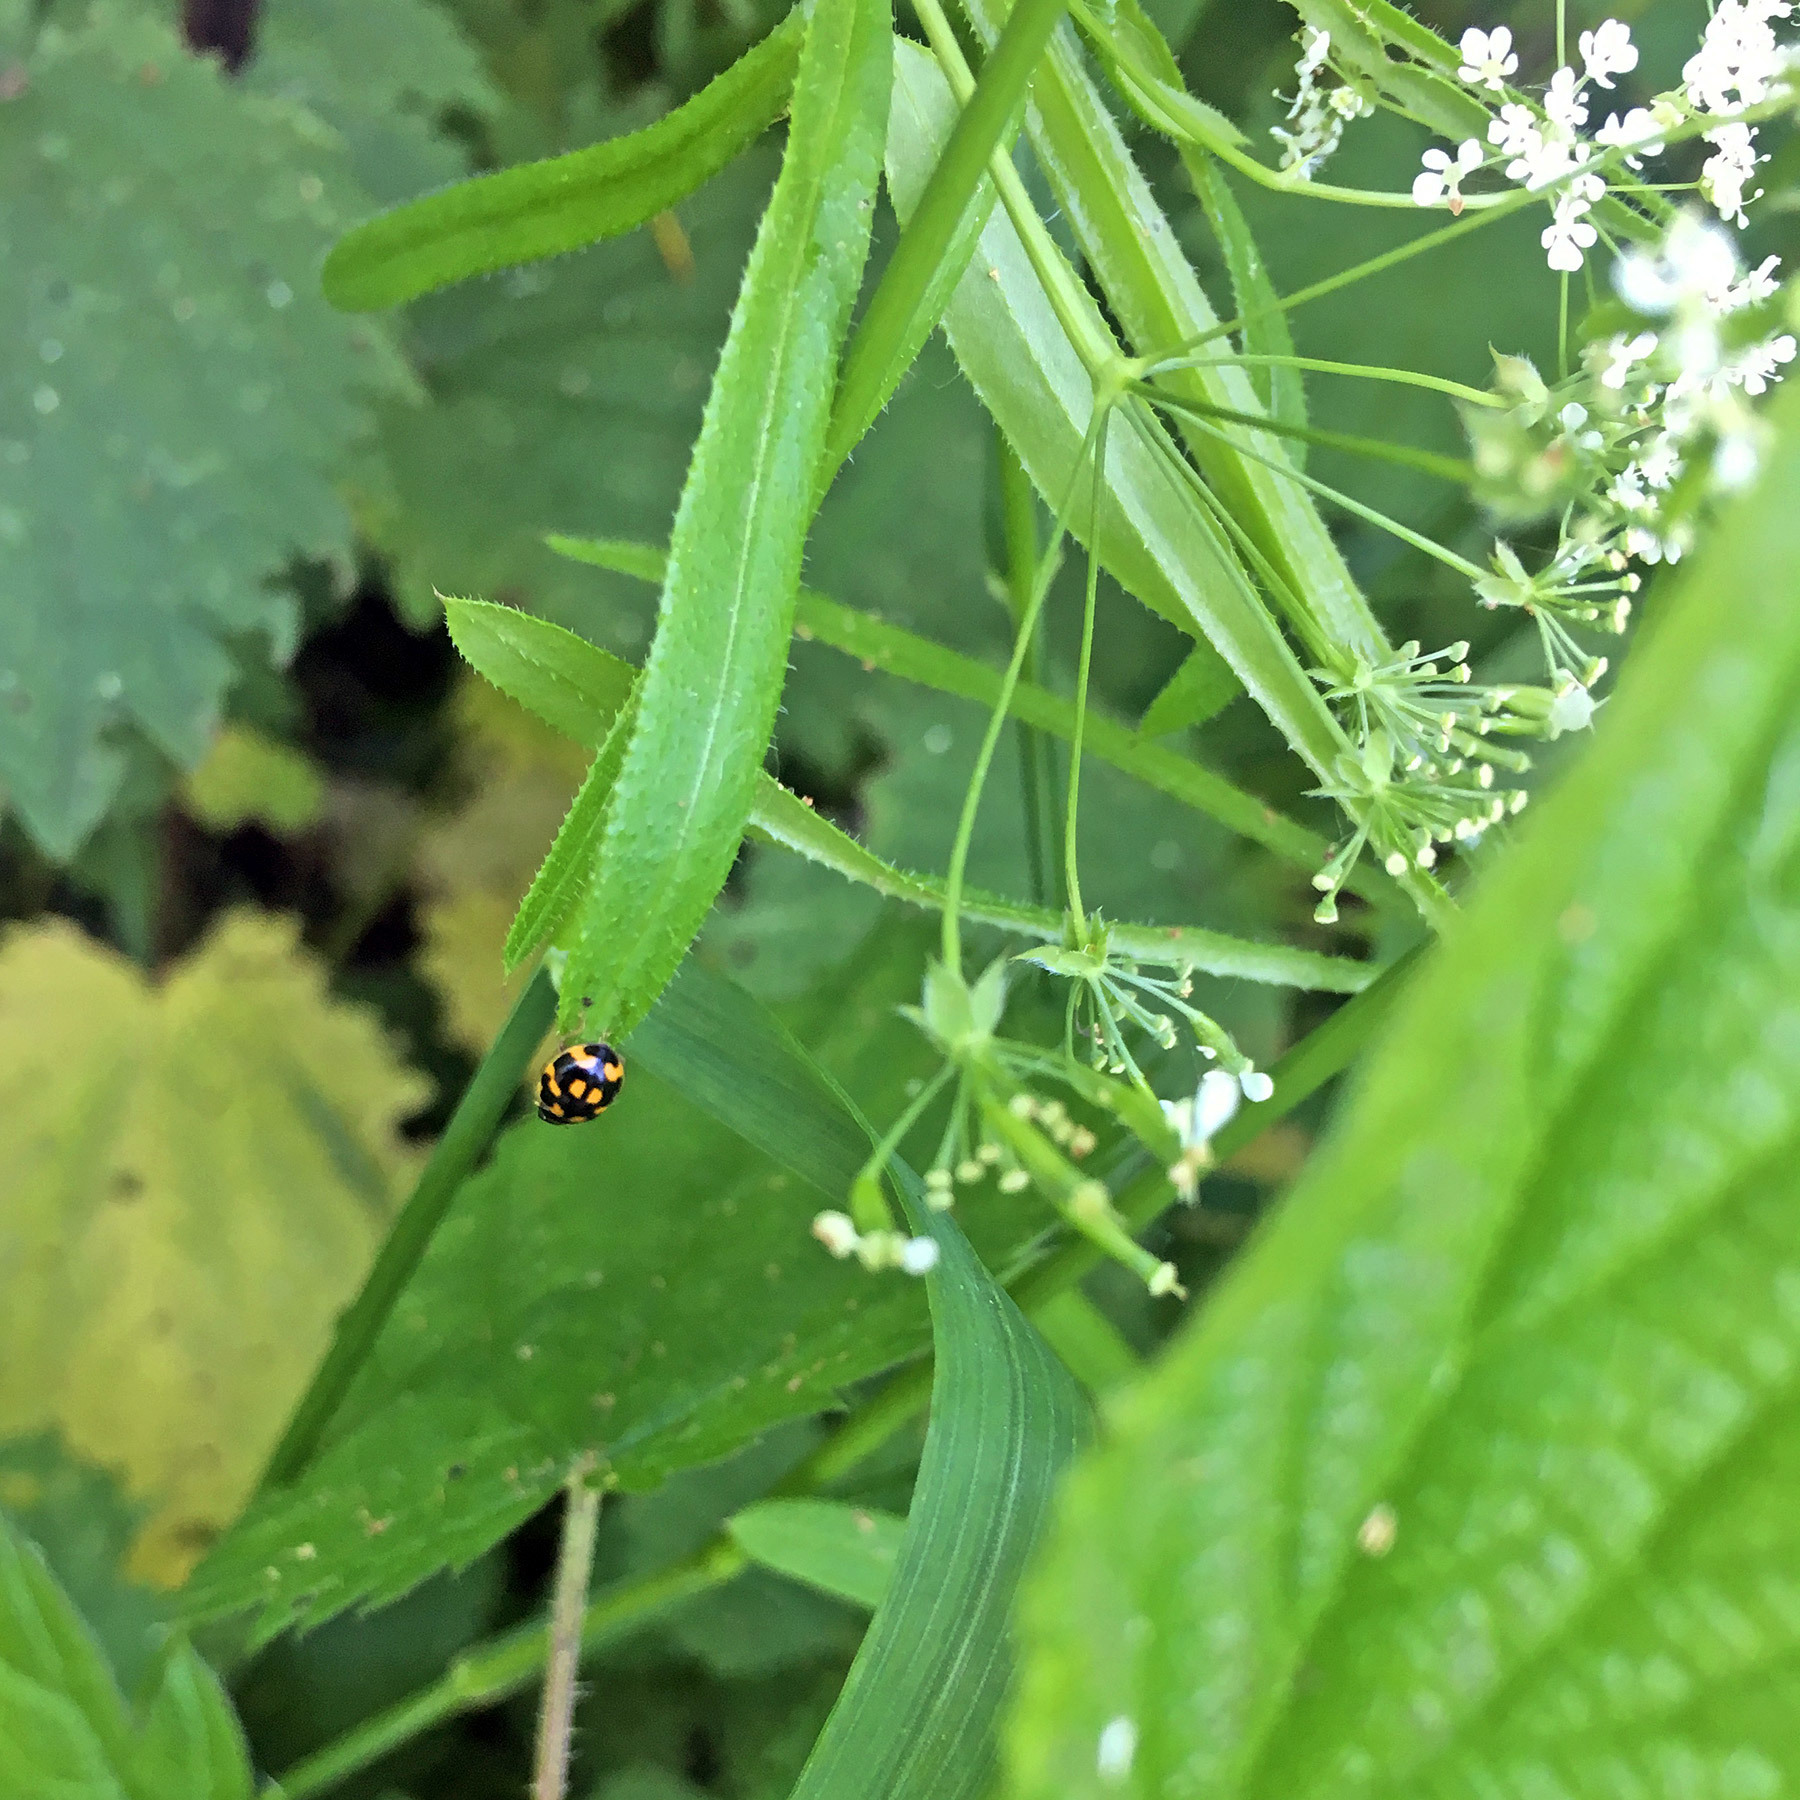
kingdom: Animalia
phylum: Arthropoda
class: Insecta
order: Coleoptera
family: Coccinellidae
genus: Propylaea
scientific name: Propylaea quatuordecimpunctata
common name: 14-spotted ladybird beetle
